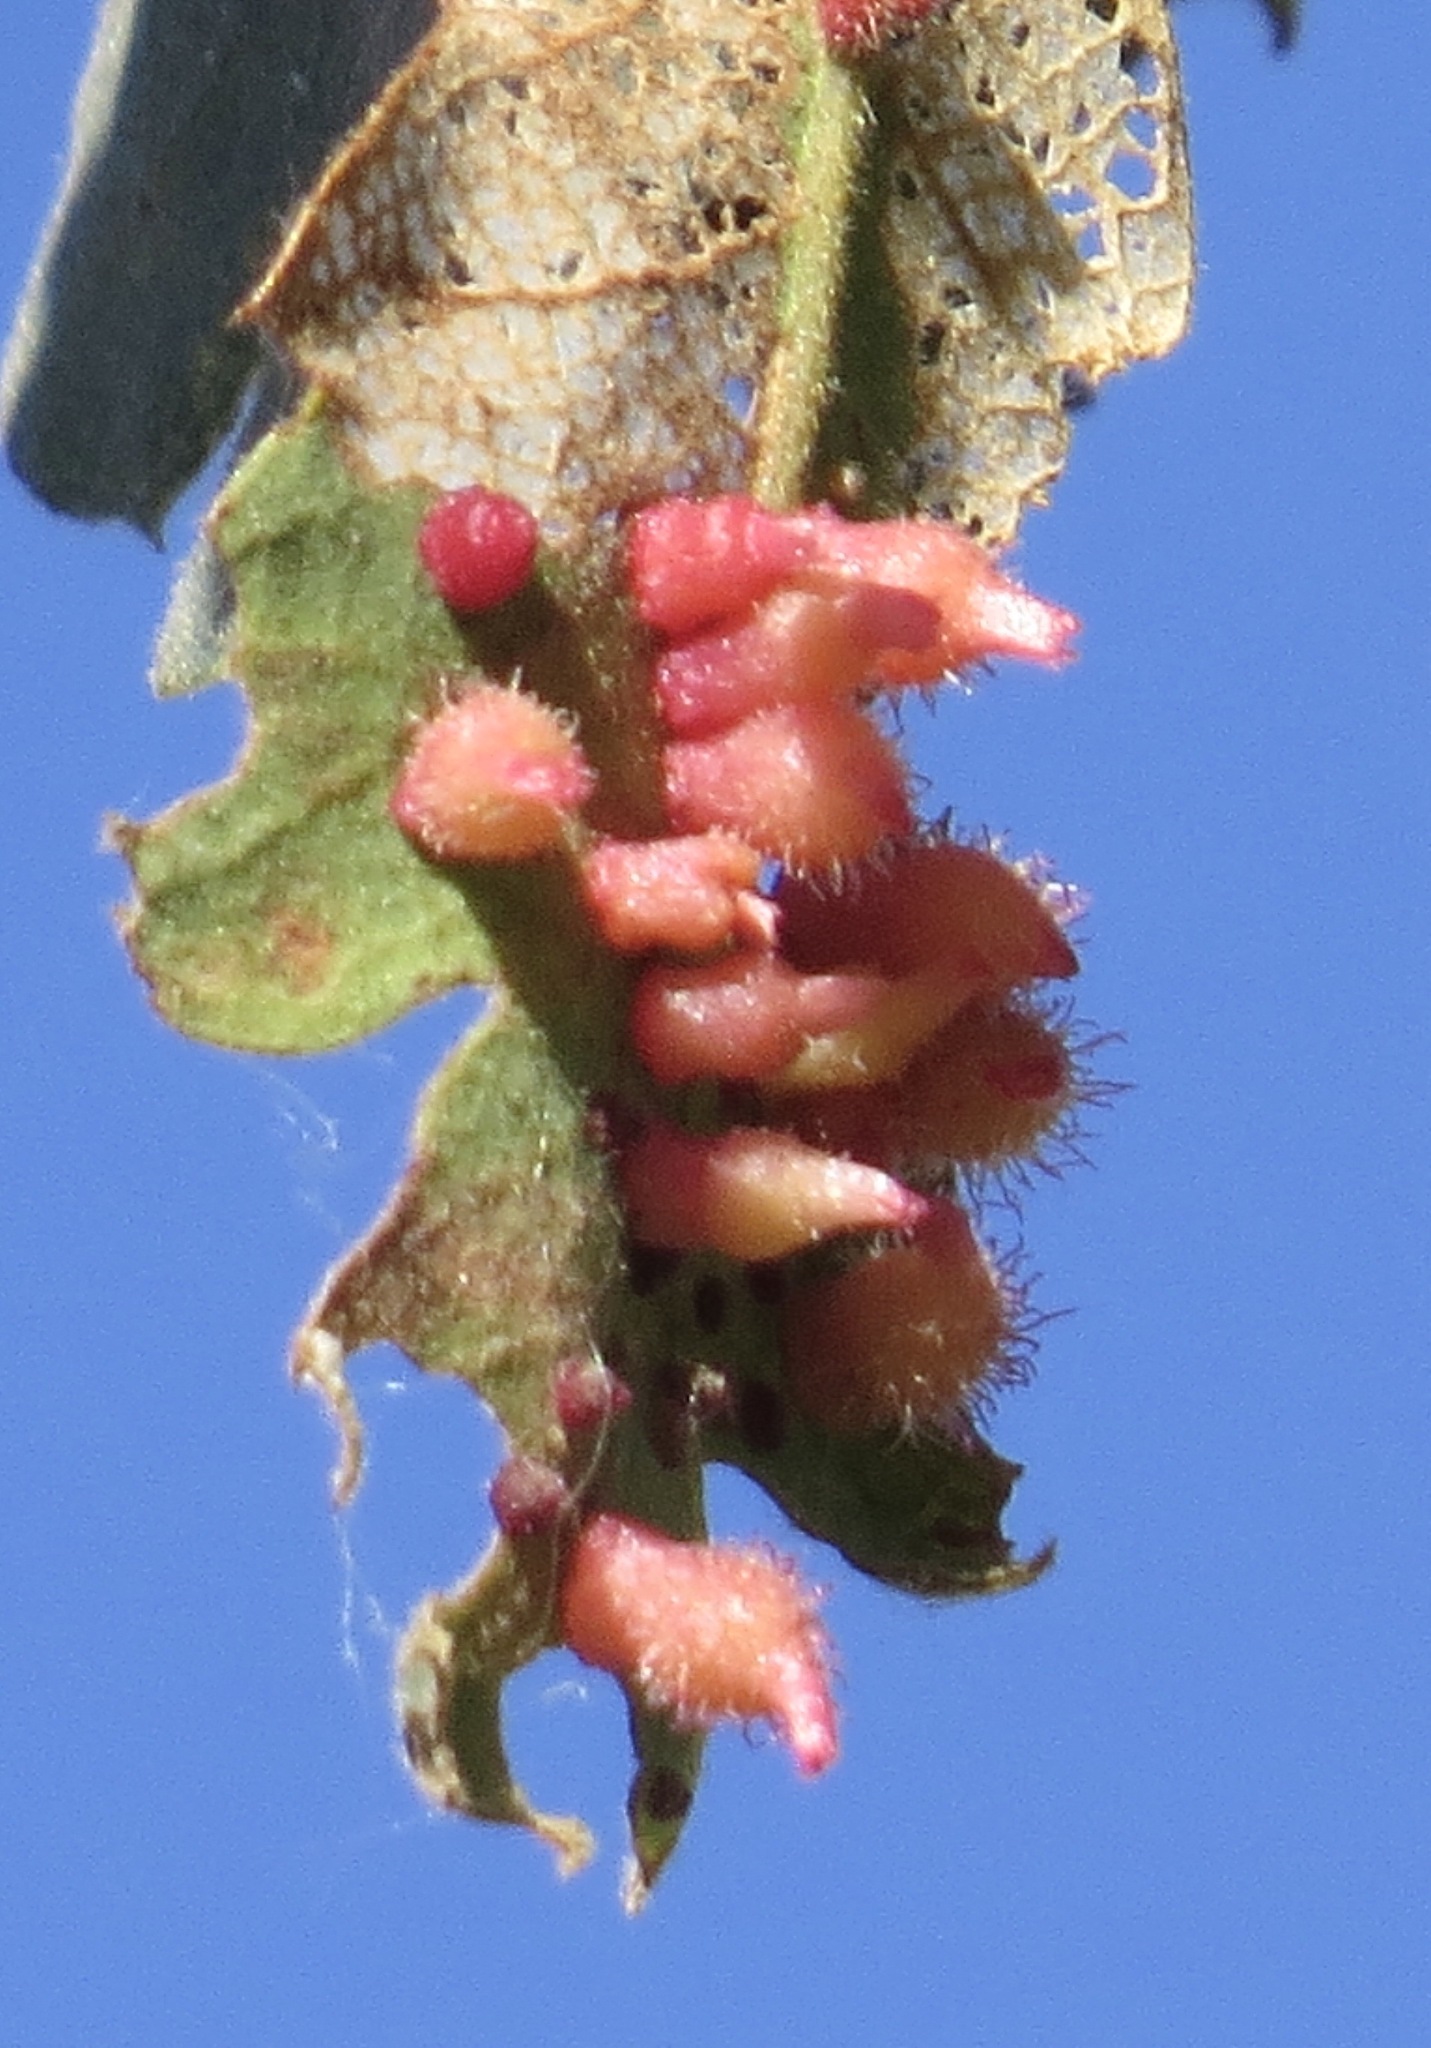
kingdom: Animalia
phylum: Arthropoda
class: Insecta
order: Hymenoptera
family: Cynipidae
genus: Andricus
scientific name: Andricus
